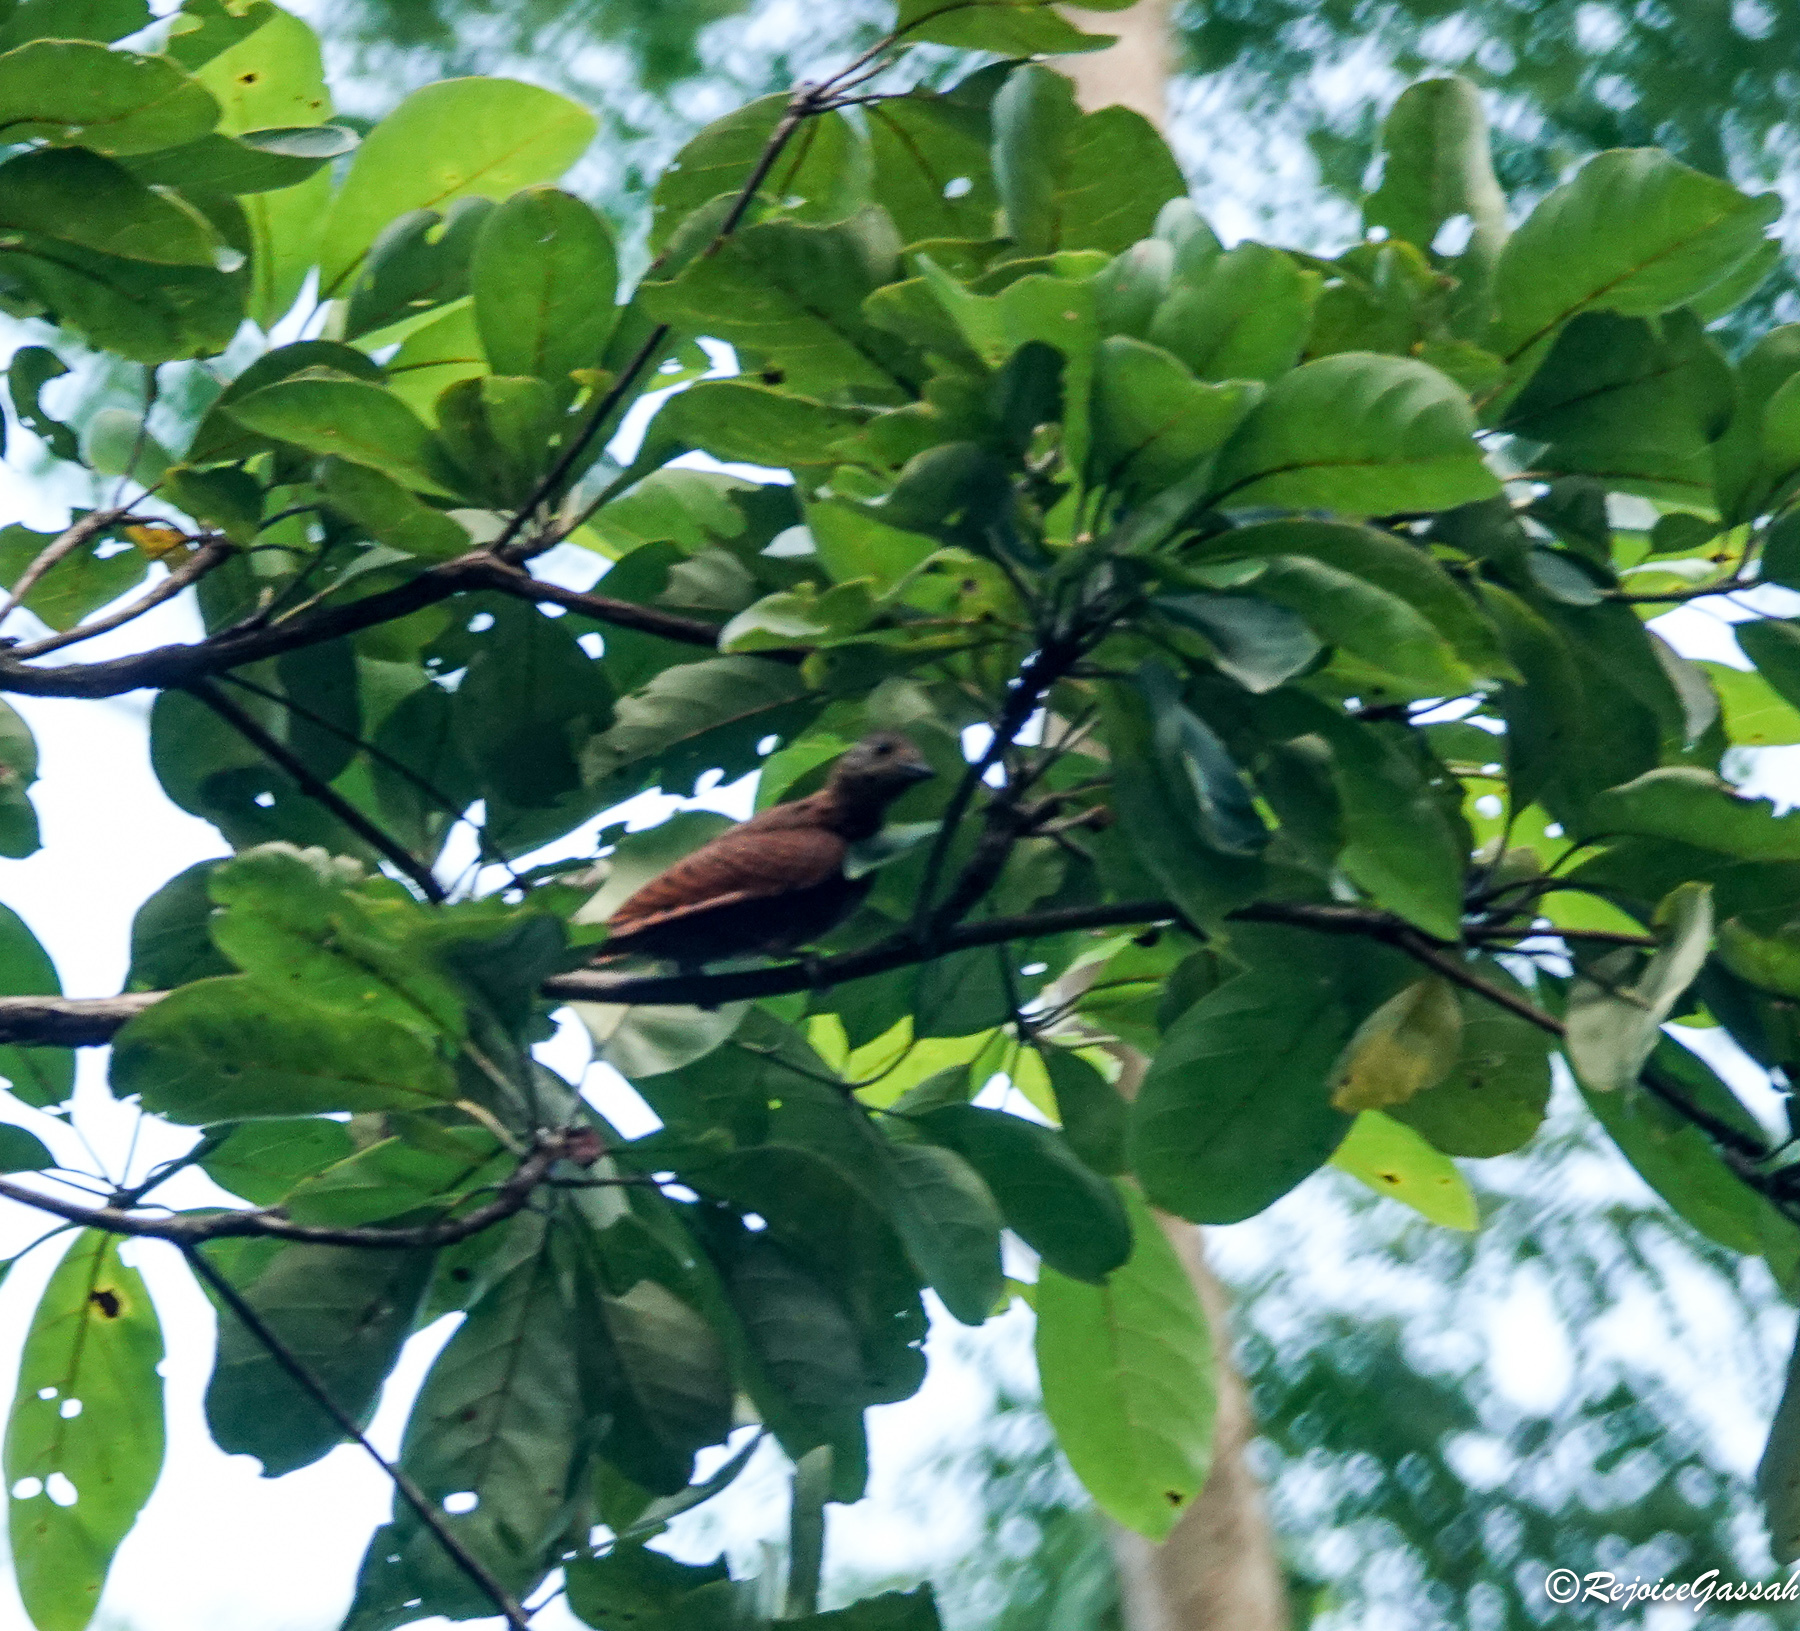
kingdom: Animalia
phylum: Chordata
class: Aves
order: Piciformes
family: Picidae
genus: Micropternus
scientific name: Micropternus brachyurus
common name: Rufous woodpecker
